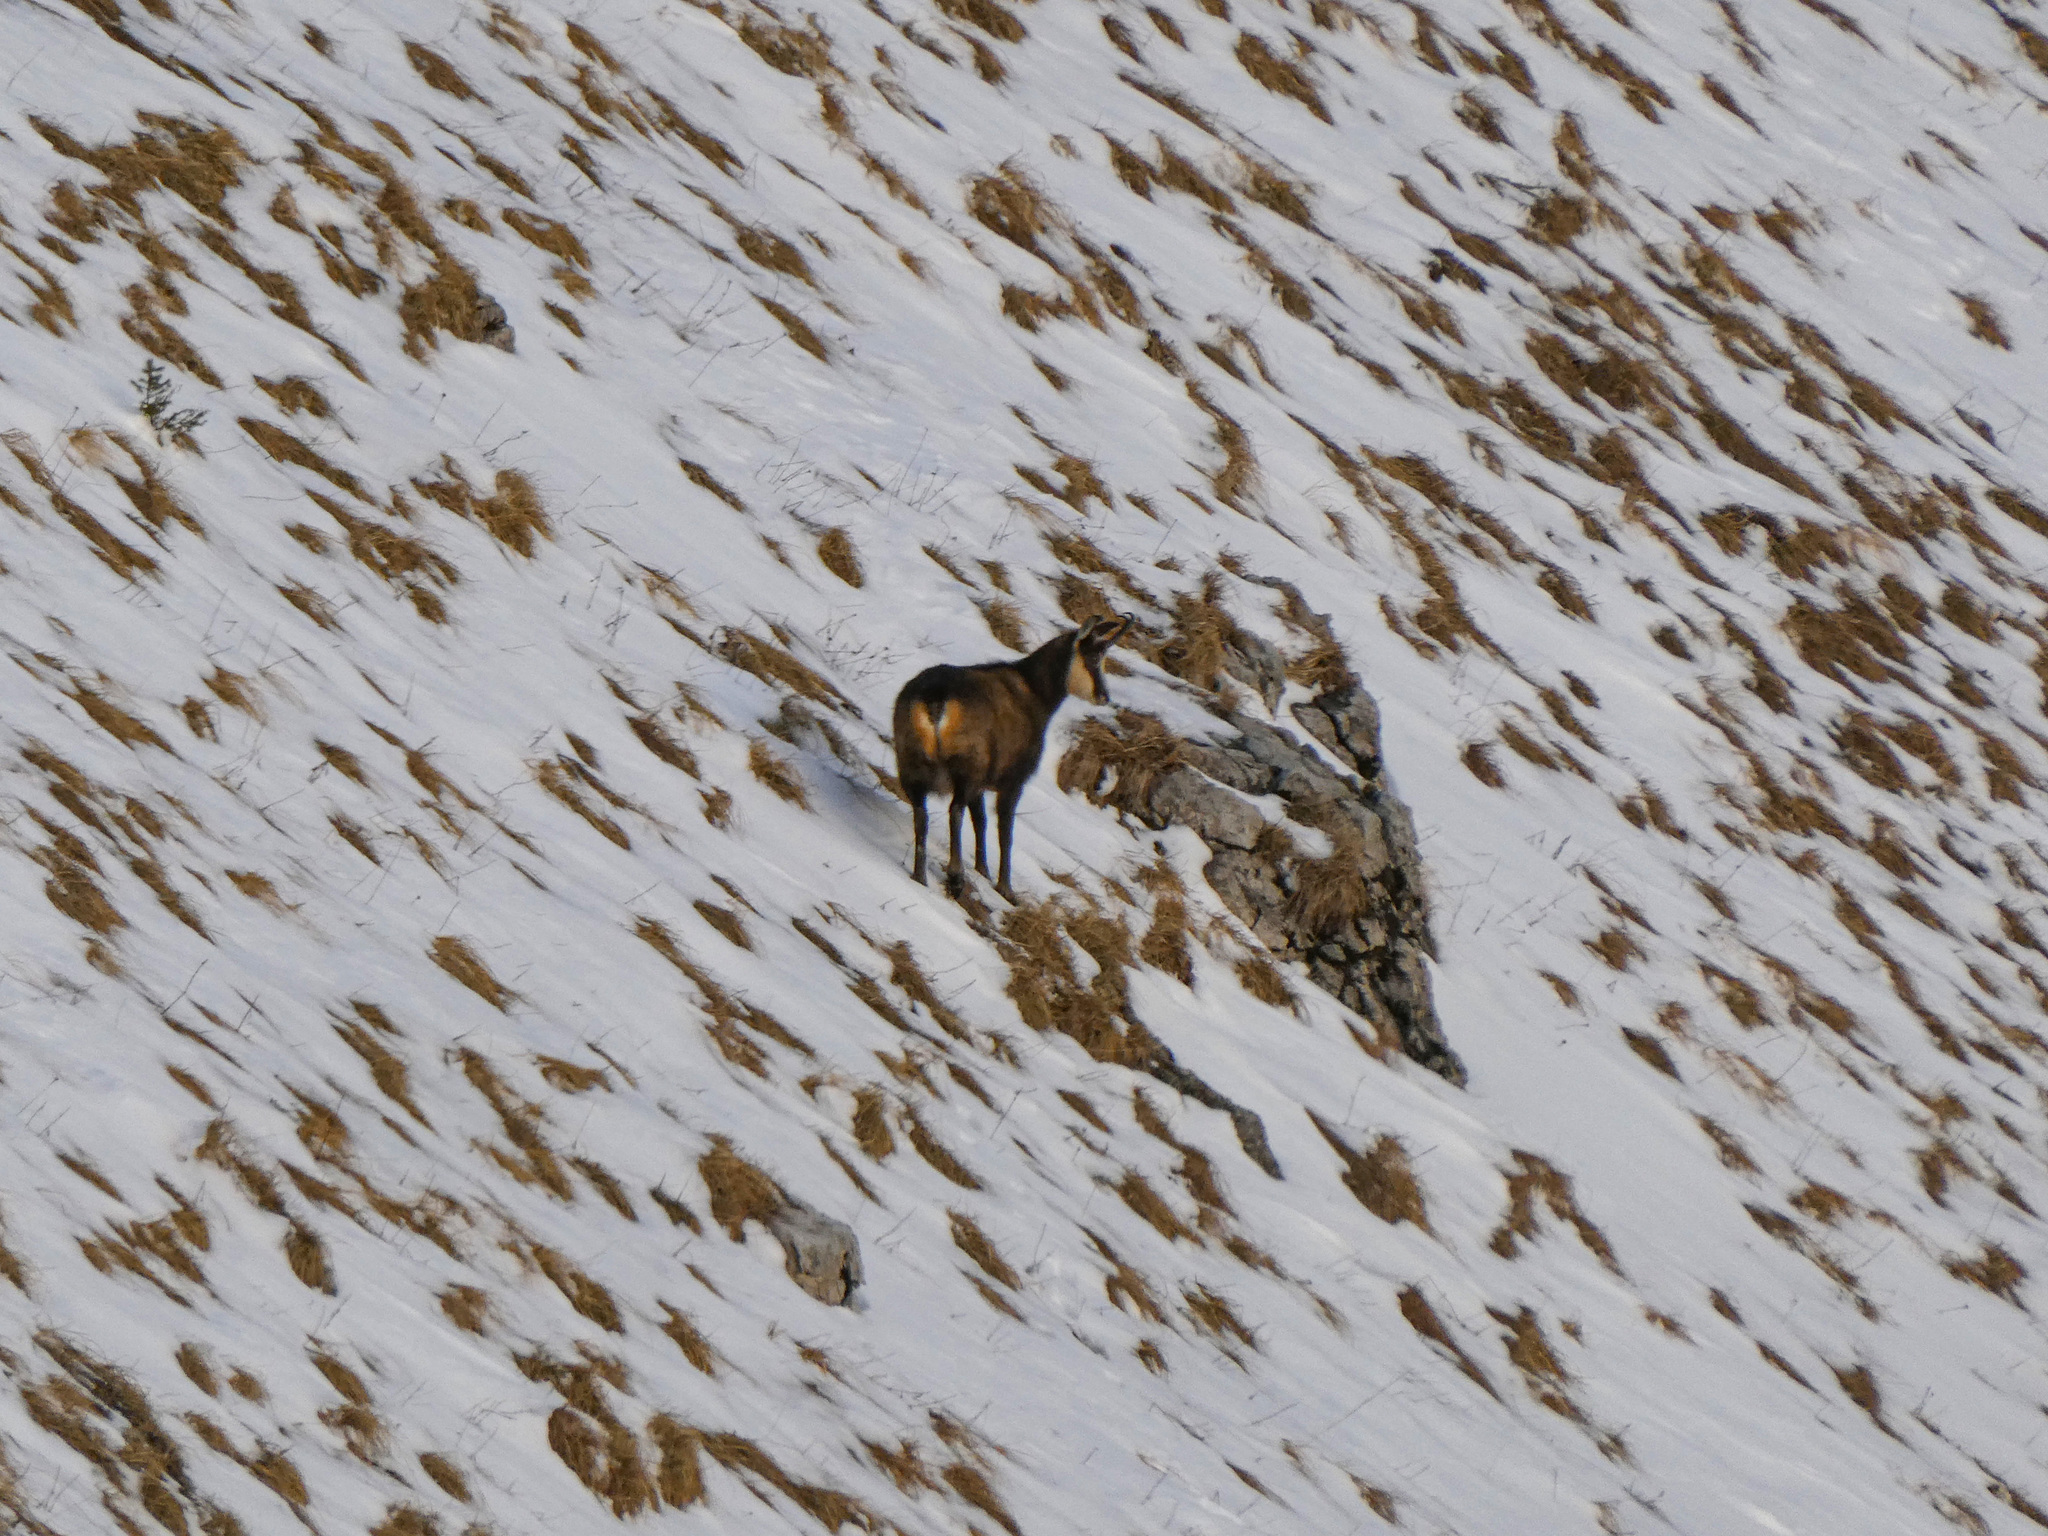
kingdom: Animalia
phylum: Chordata
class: Mammalia
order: Artiodactyla
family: Bovidae
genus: Rupicapra
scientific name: Rupicapra rupicapra
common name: Chamois
